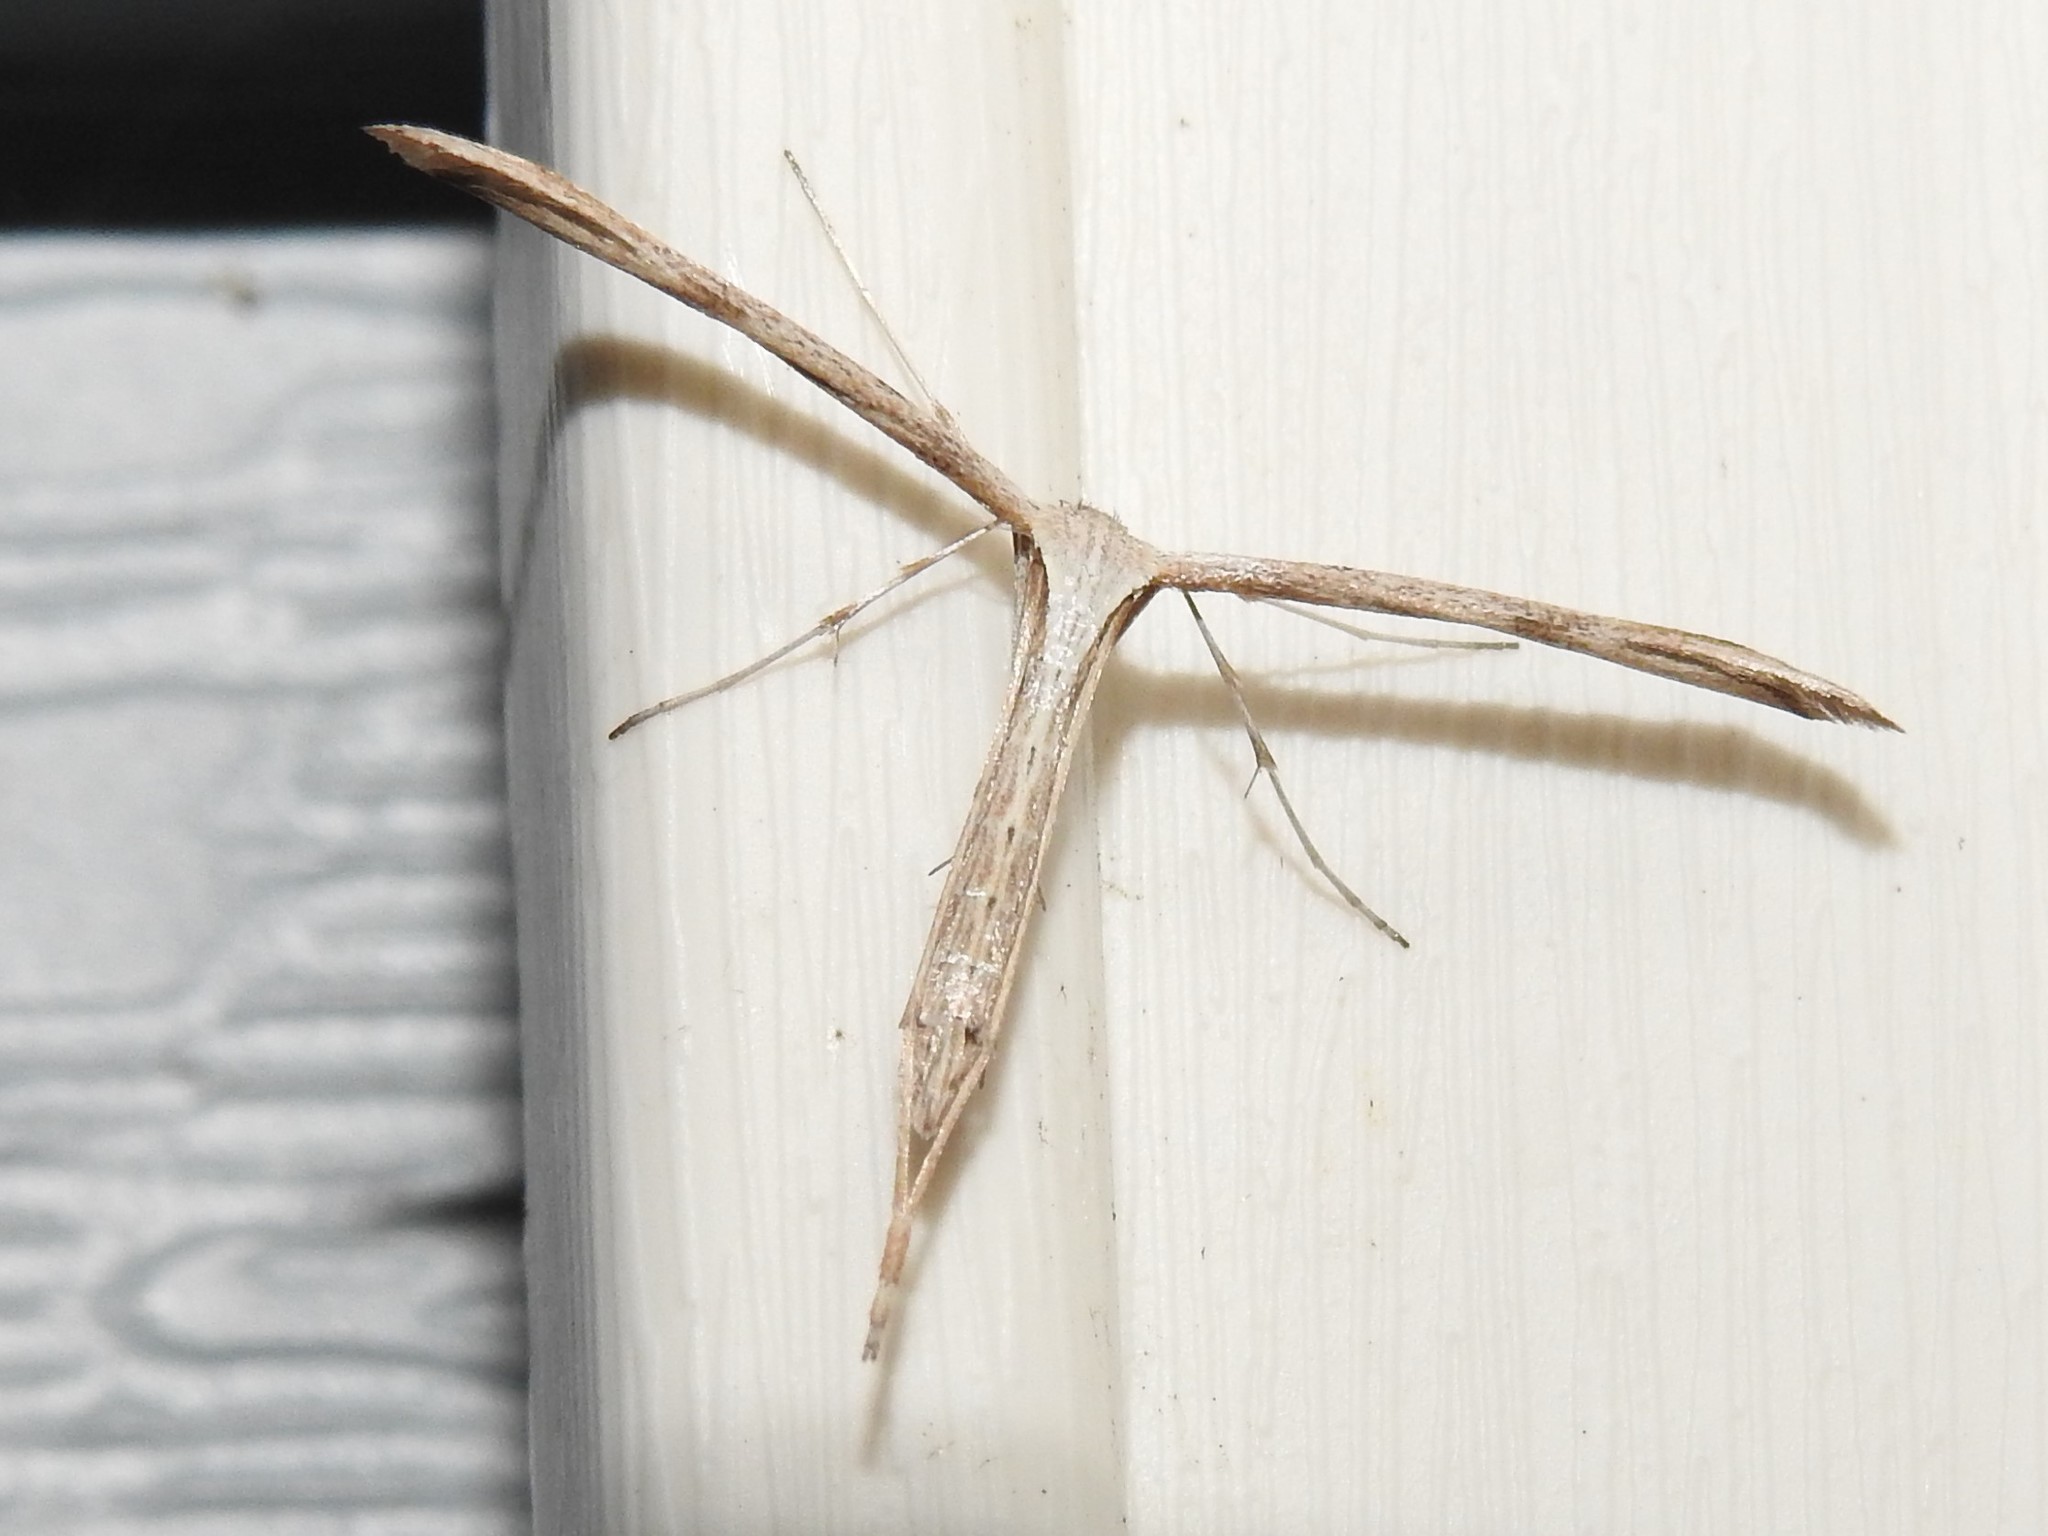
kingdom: Animalia
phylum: Arthropoda
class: Insecta
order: Lepidoptera
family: Pterophoridae
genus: Emmelina
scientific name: Emmelina monodactyla
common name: Common plume
